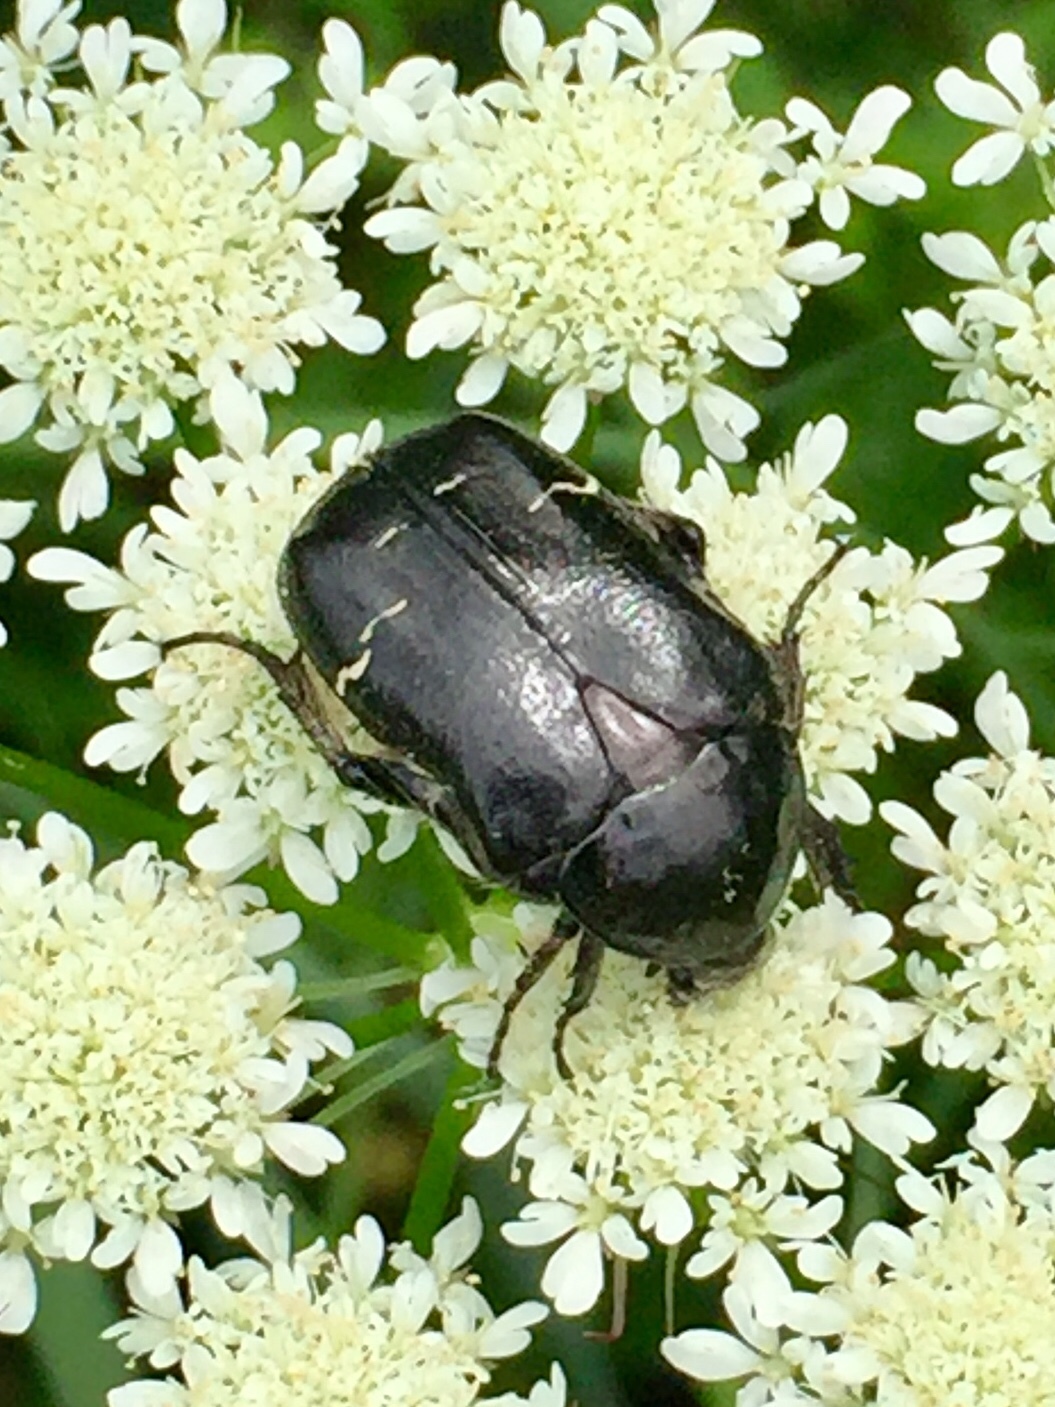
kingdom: Animalia
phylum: Arthropoda
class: Insecta
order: Coleoptera
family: Scarabaeidae
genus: Cetonia
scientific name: Cetonia aurata
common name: Rose chafer
